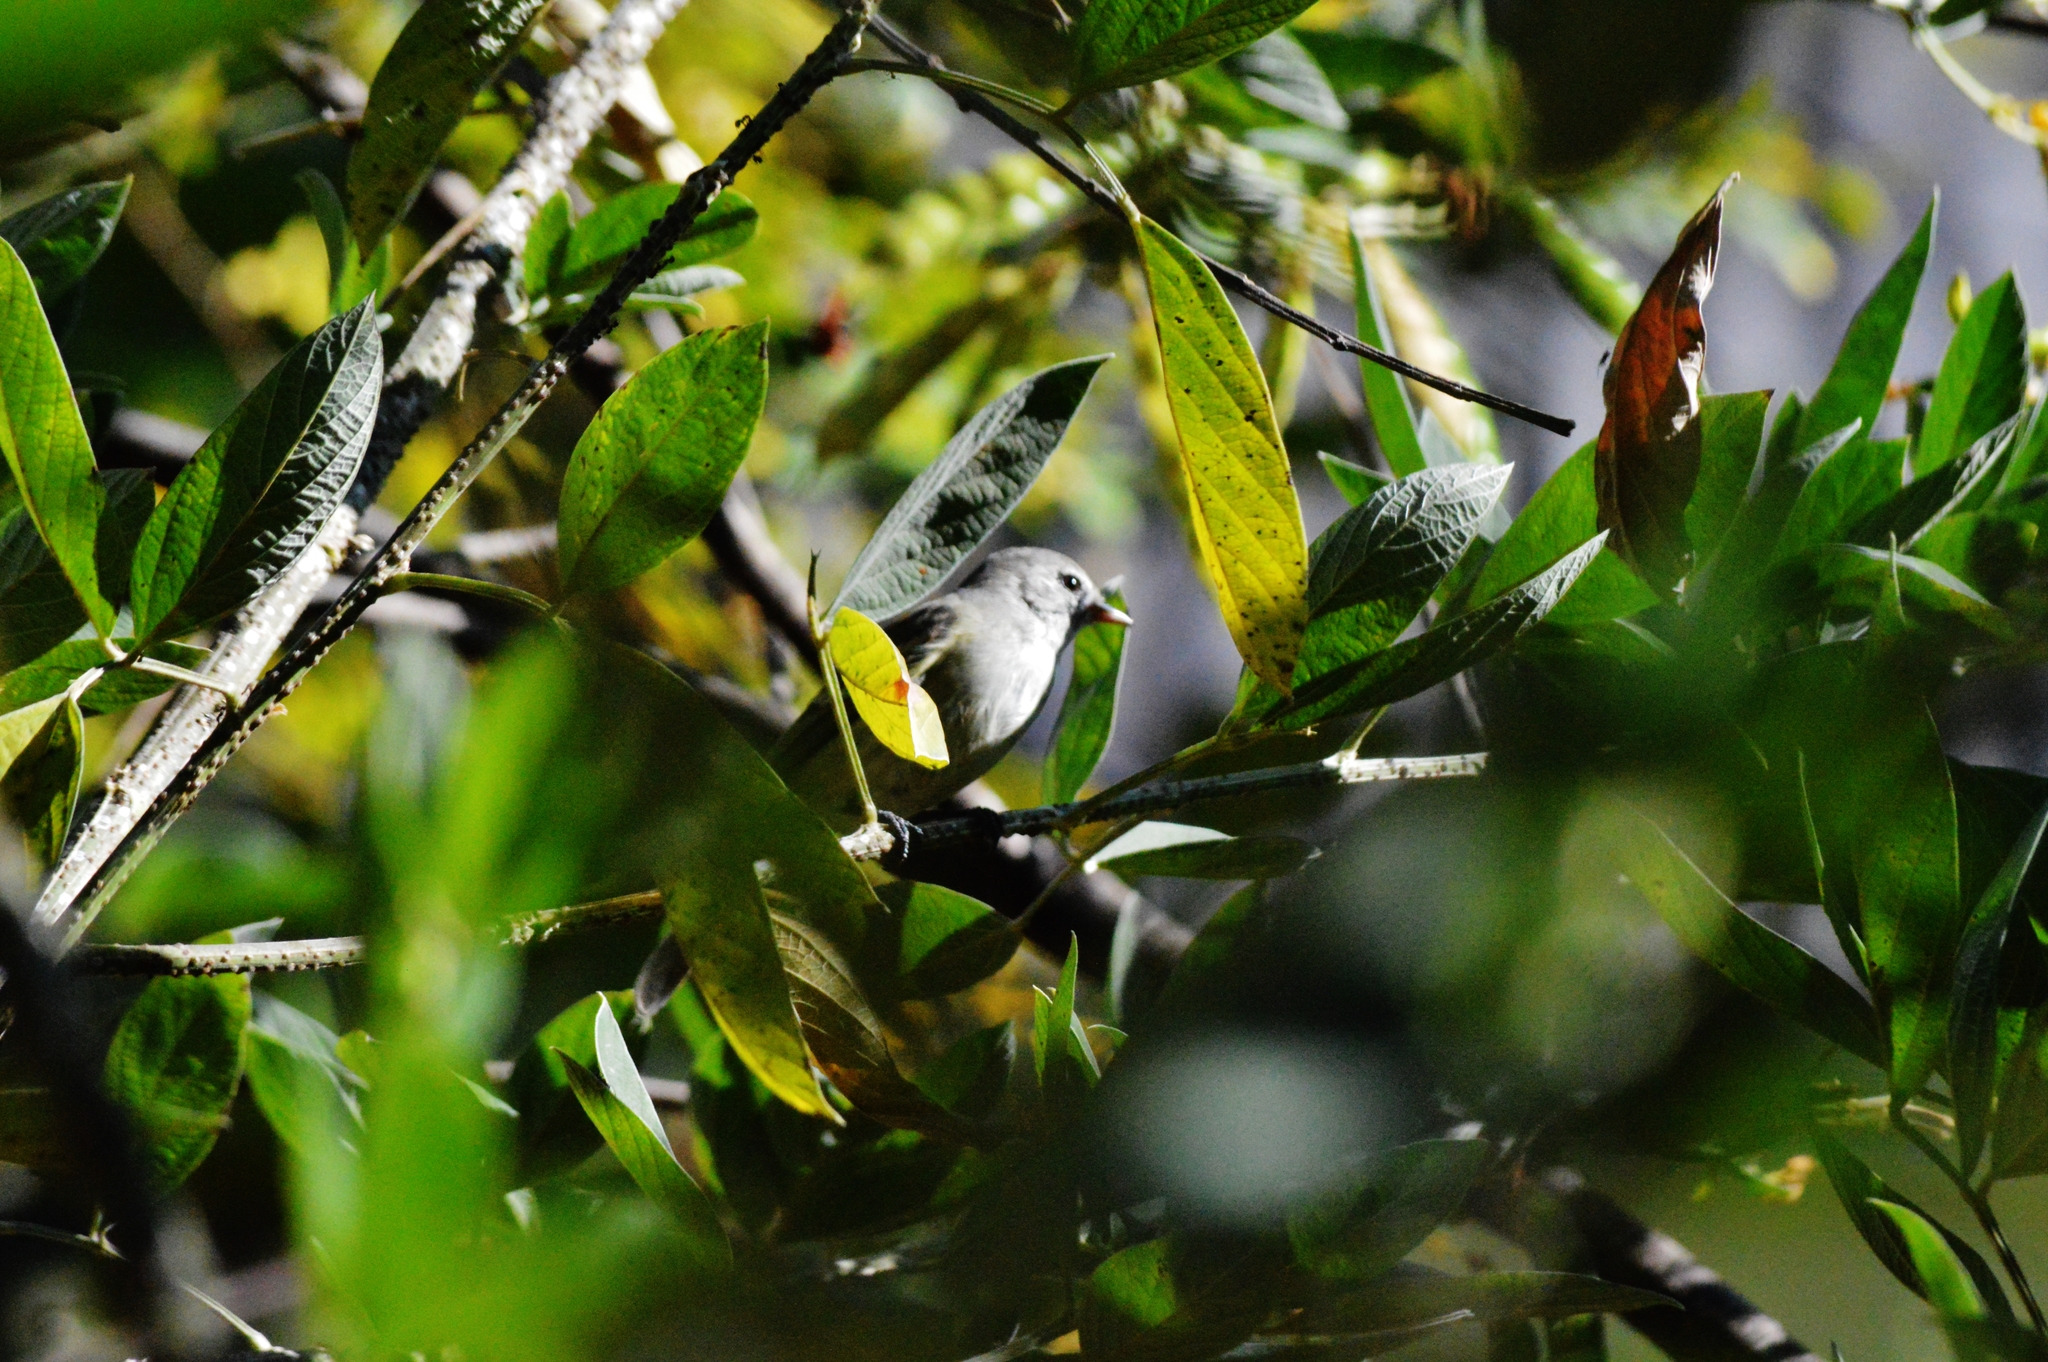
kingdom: Animalia
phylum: Chordata
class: Aves
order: Passeriformes
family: Tyrannidae
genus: Camptostoma
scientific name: Camptostoma obsoletum
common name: Southern beardless-tyrannulet
